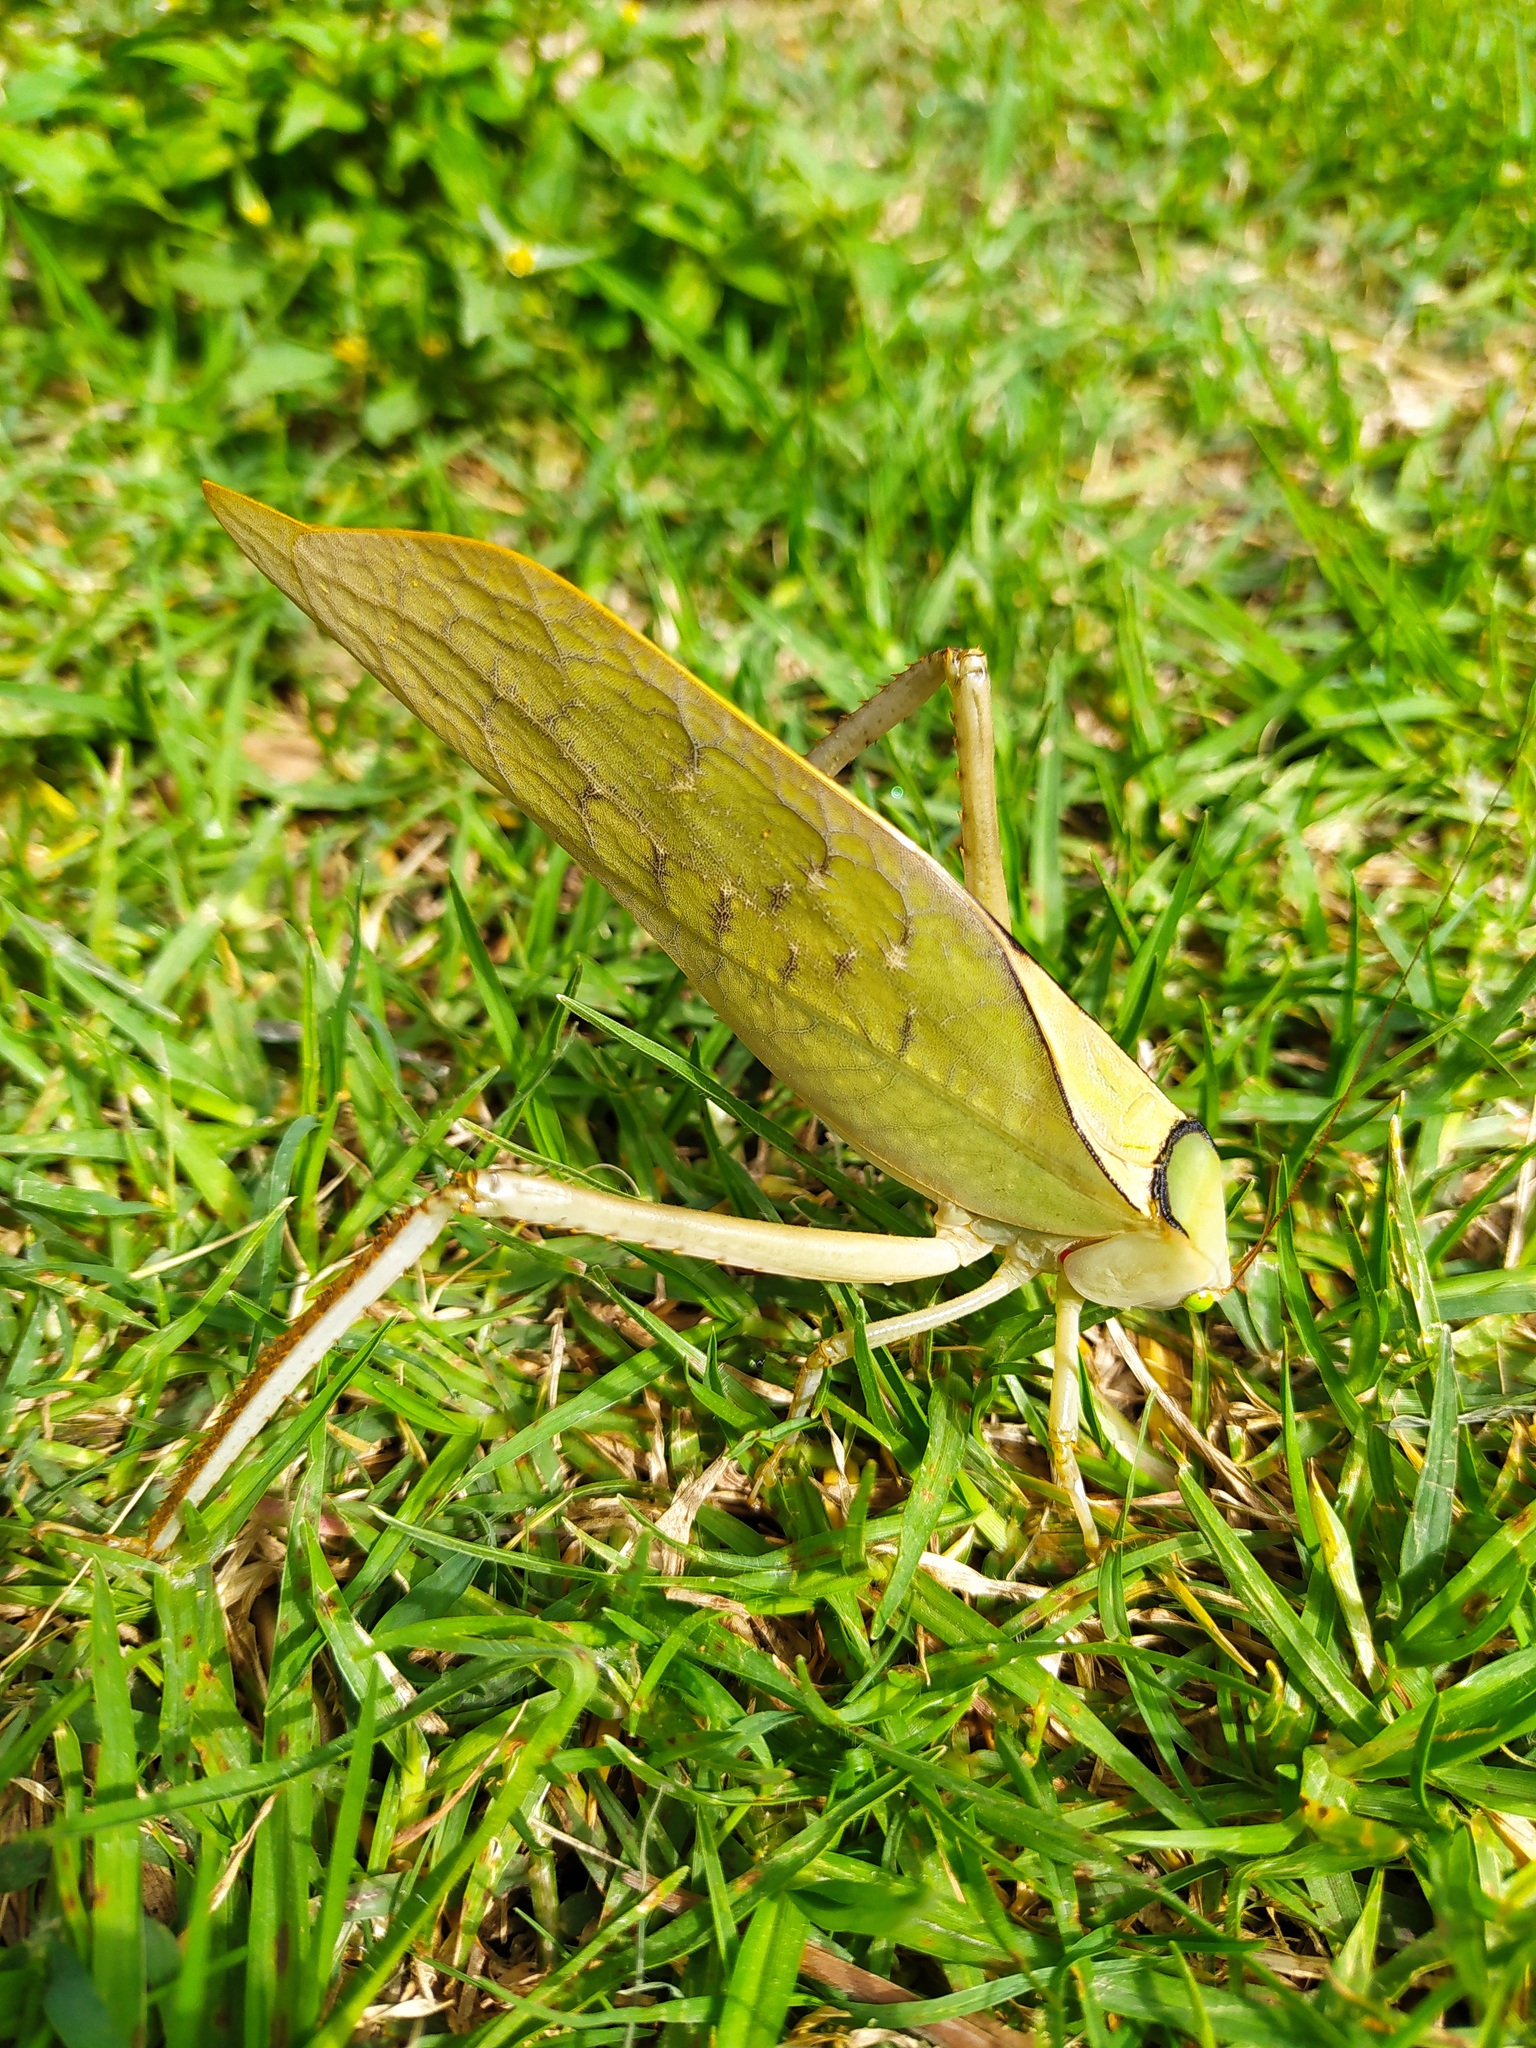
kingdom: Animalia
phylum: Arthropoda
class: Insecta
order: Orthoptera
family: Tettigoniidae
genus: Stilpnochlora
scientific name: Stilpnochlora azteca
